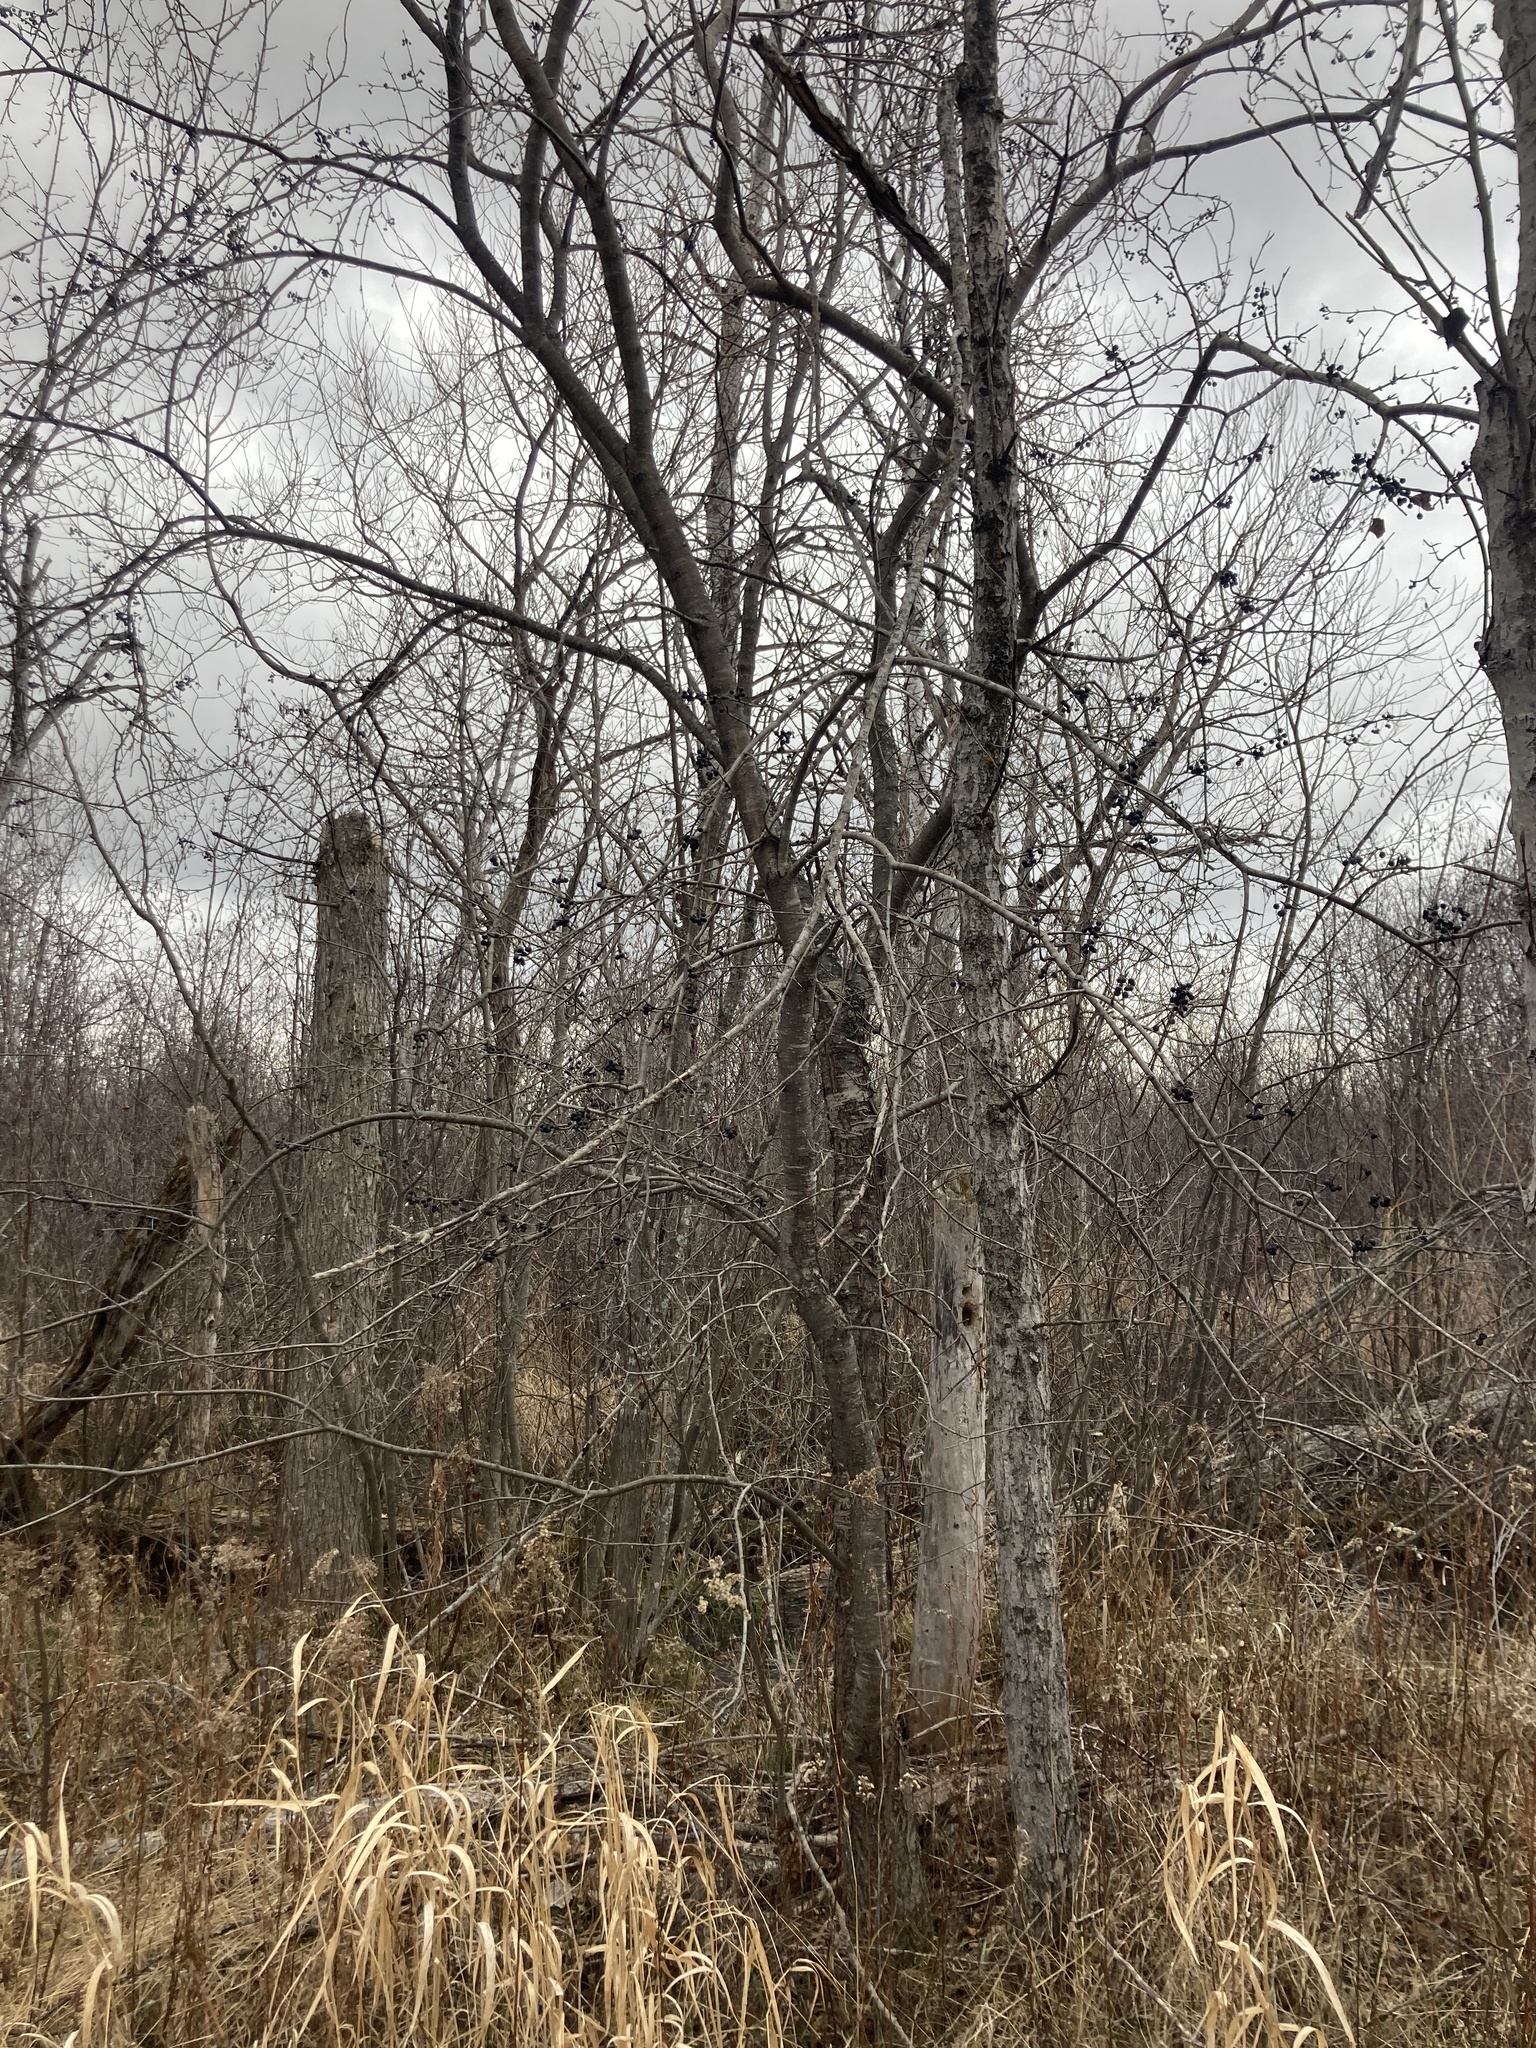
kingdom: Plantae
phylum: Tracheophyta
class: Magnoliopsida
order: Rosales
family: Rhamnaceae
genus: Rhamnus
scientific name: Rhamnus cathartica
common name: Common buckthorn
